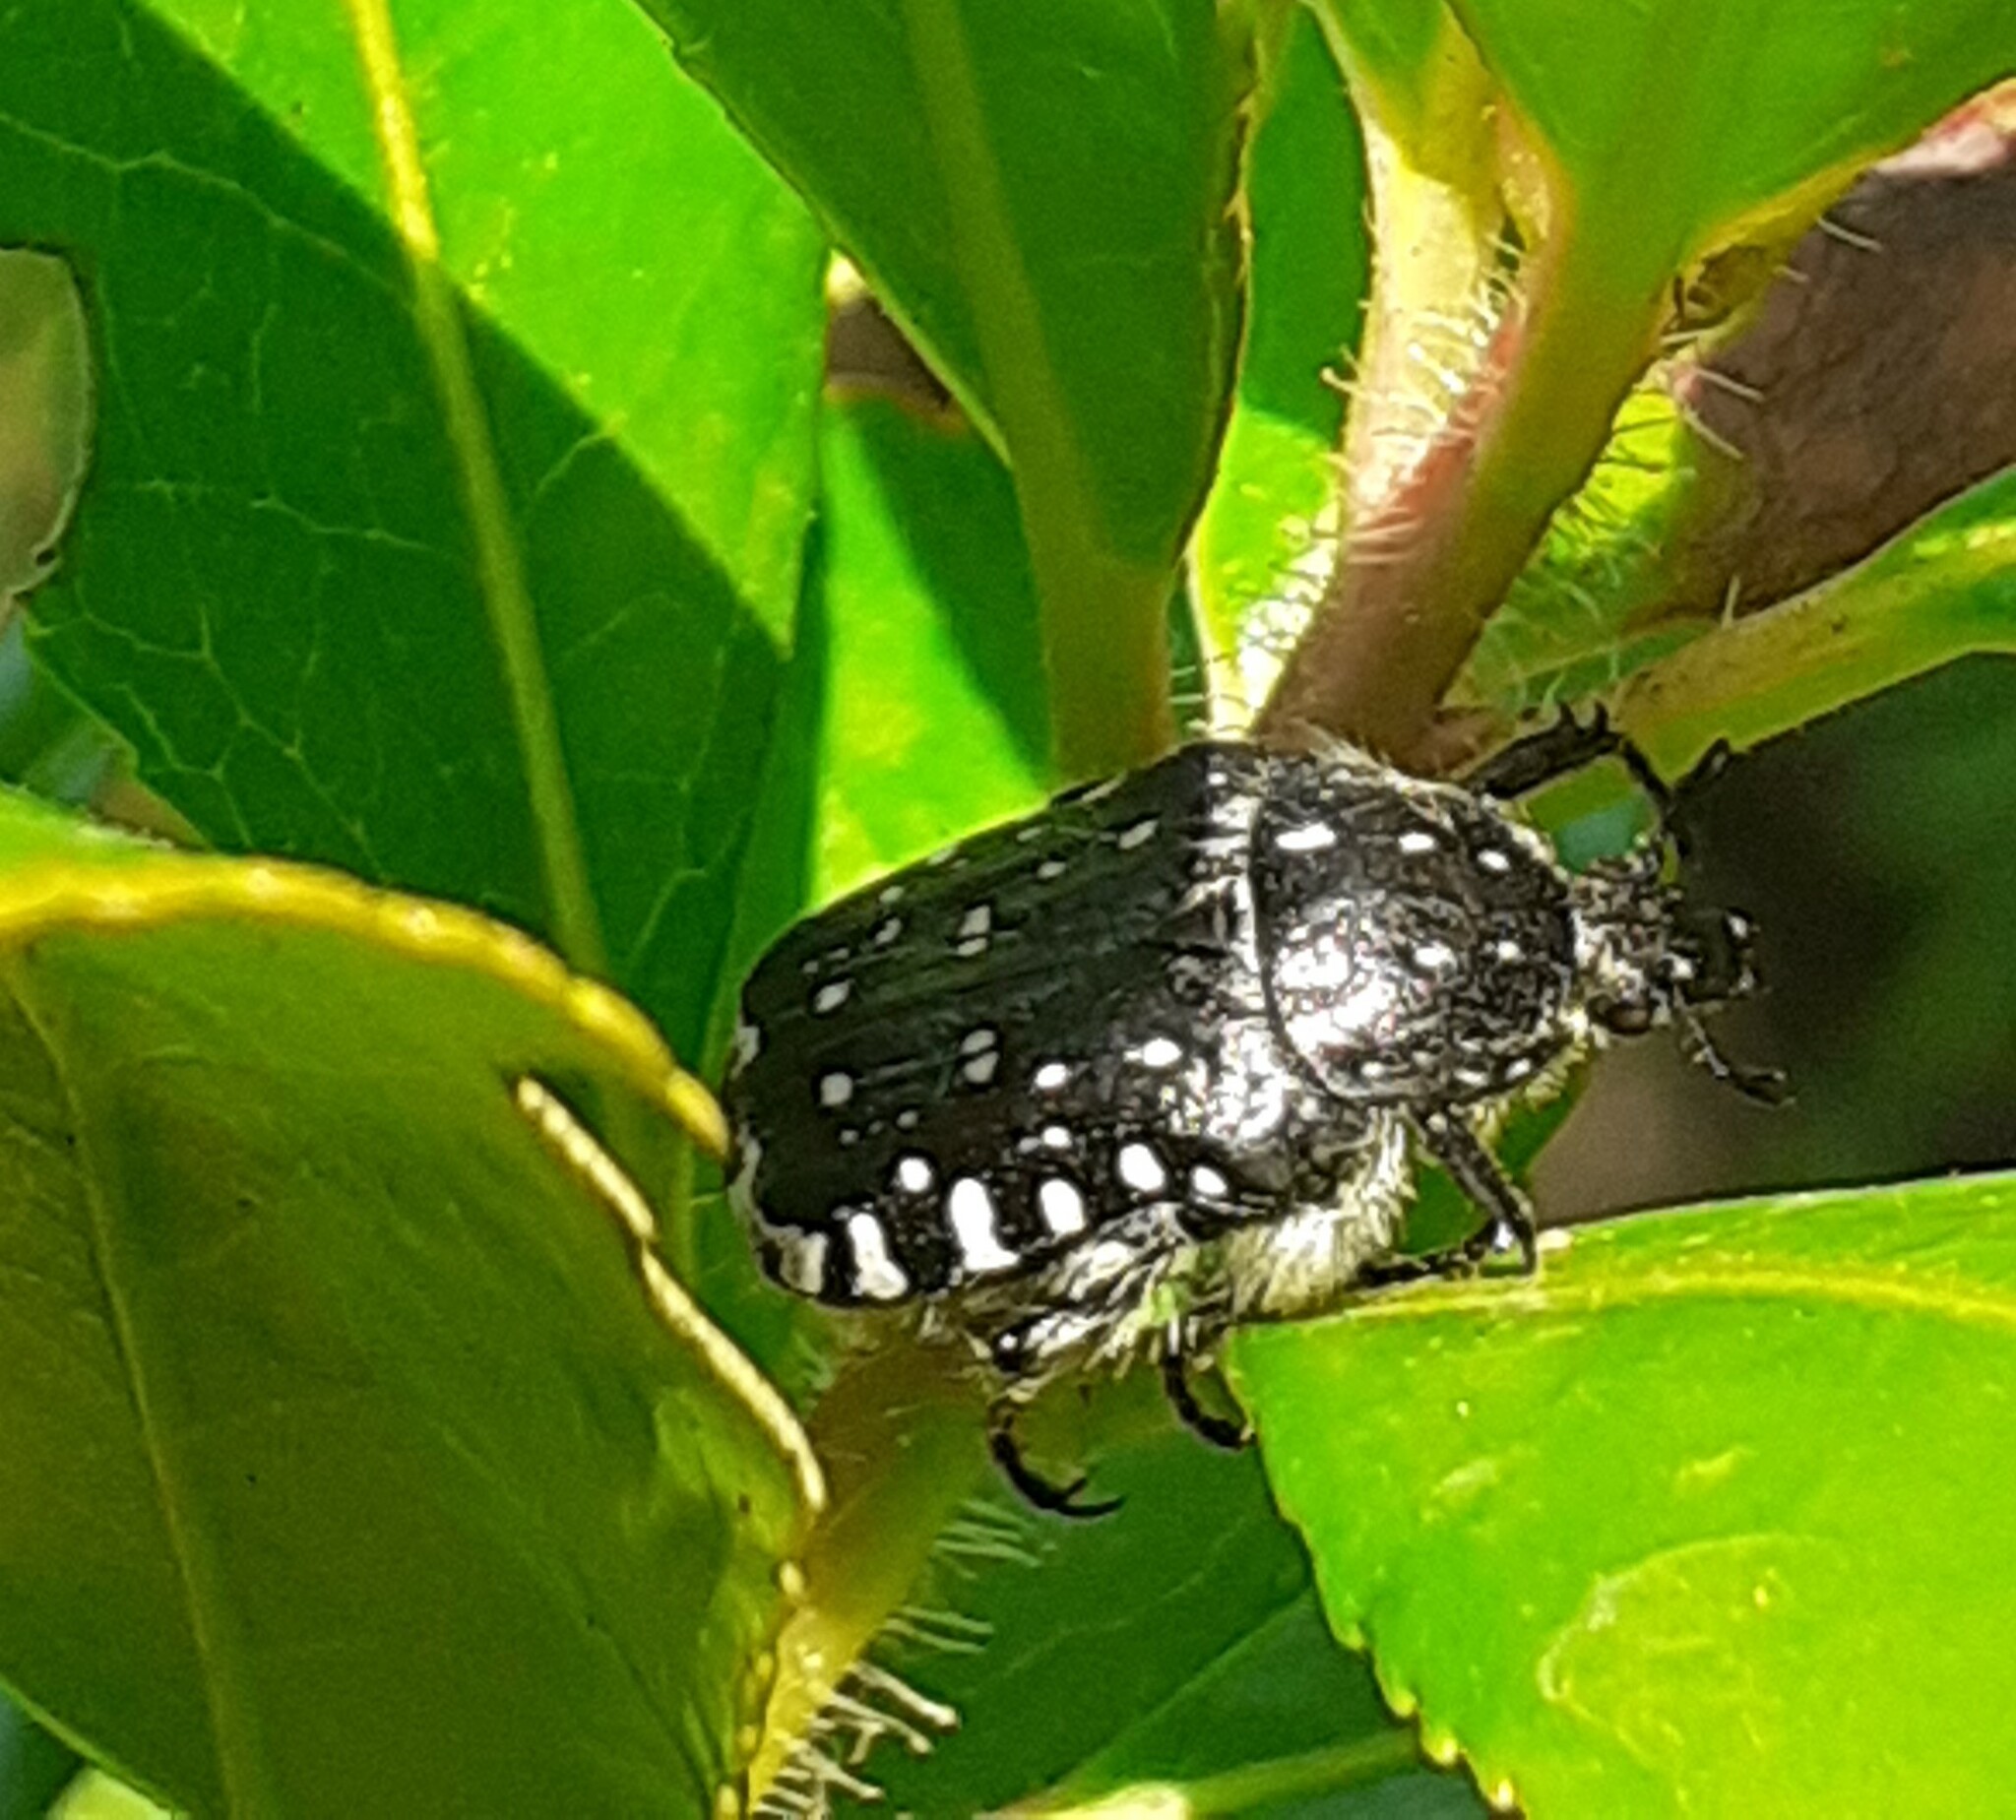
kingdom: Animalia
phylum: Arthropoda
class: Insecta
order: Coleoptera
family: Scarabaeidae
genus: Oxythyrea
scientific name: Oxythyrea funesta
